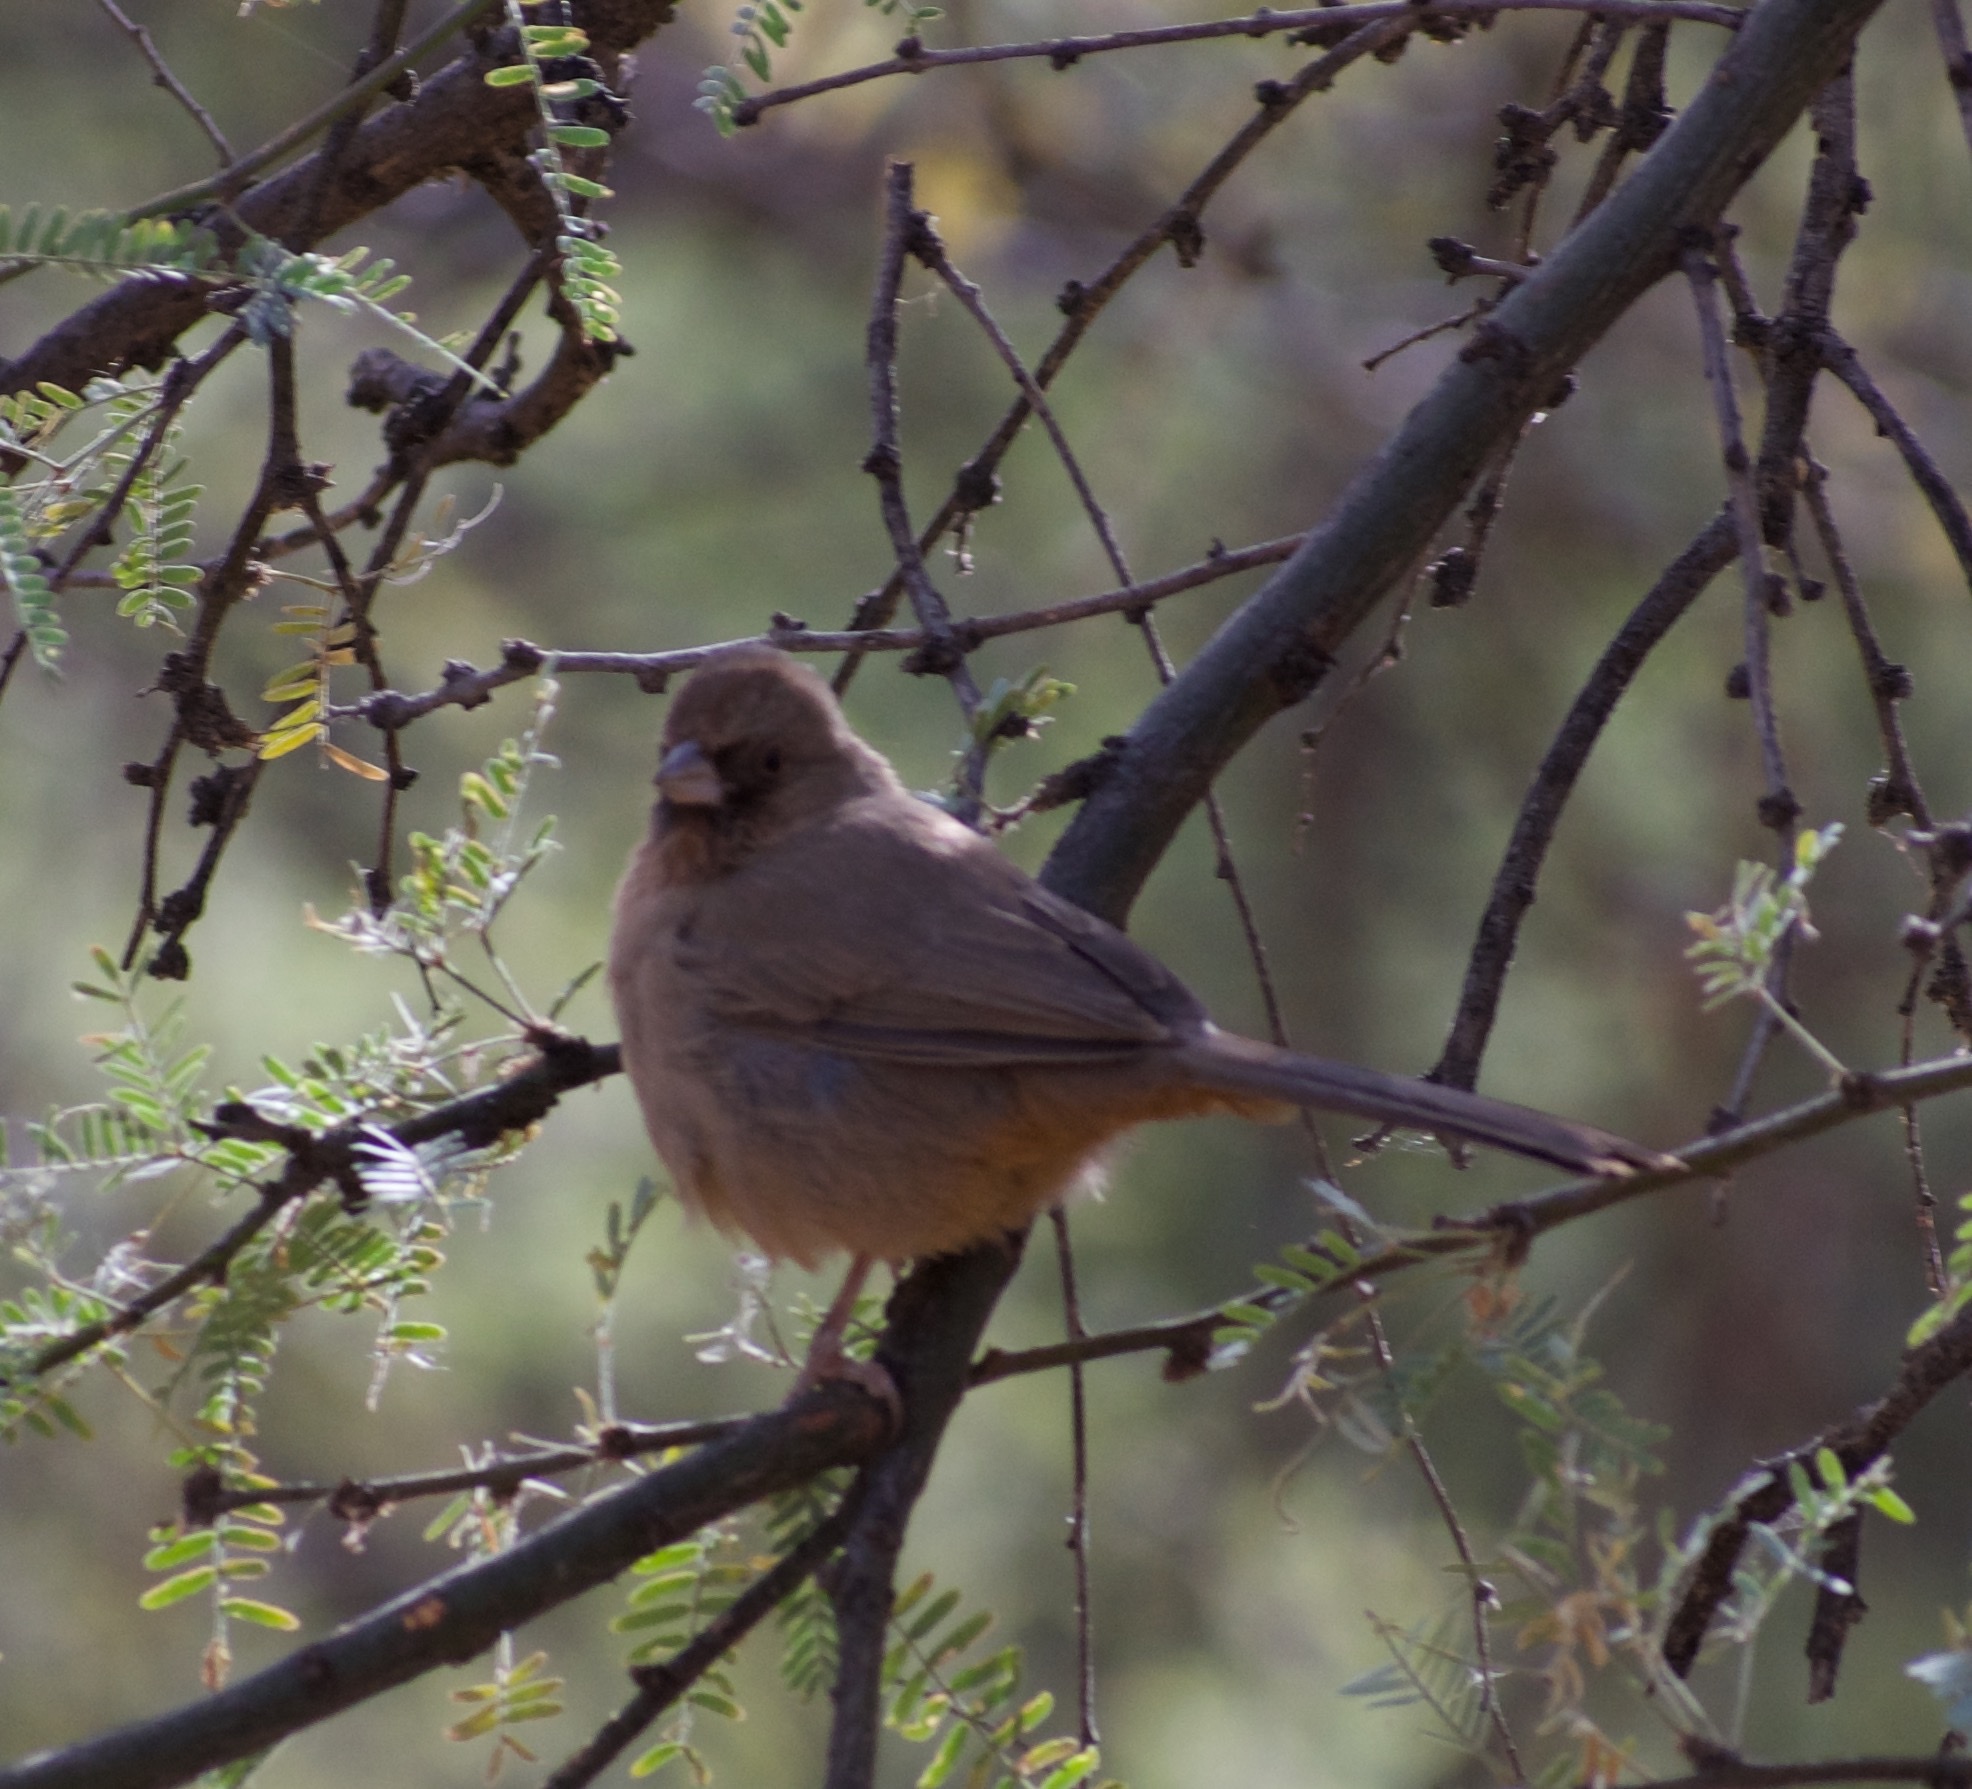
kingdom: Animalia
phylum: Chordata
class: Aves
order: Passeriformes
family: Passerellidae
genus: Melozone
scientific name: Melozone aberti
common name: Abert's towhee
